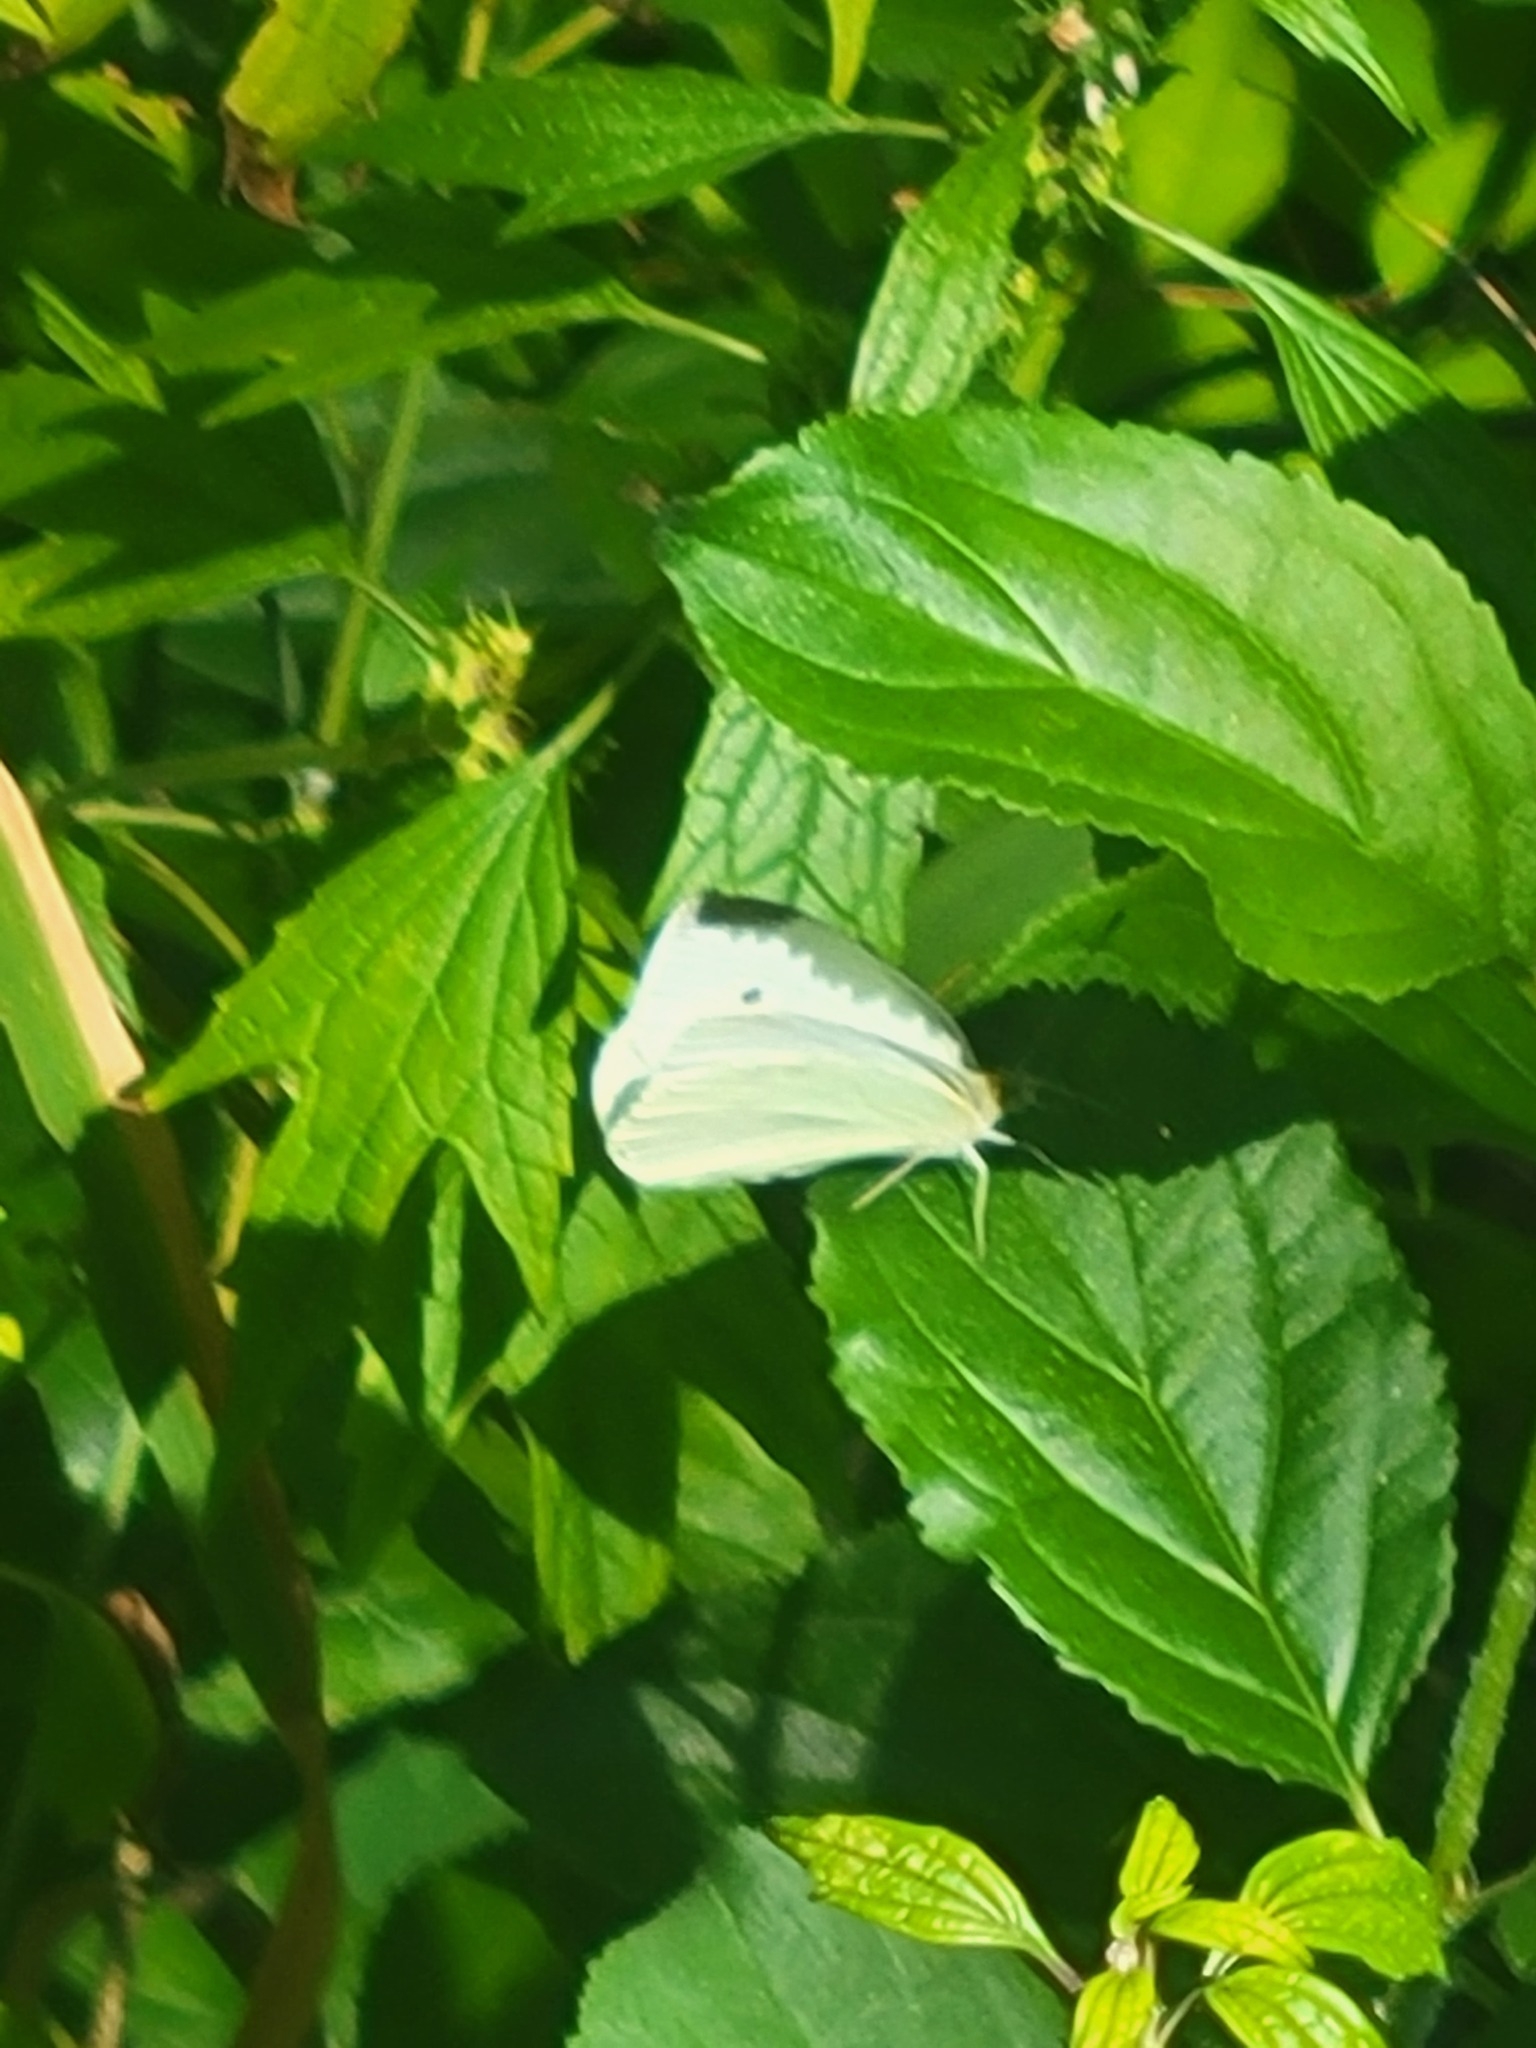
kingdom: Animalia
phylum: Arthropoda
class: Insecta
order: Lepidoptera
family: Pieridae
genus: Pieris
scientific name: Pieris rapae
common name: Small white
